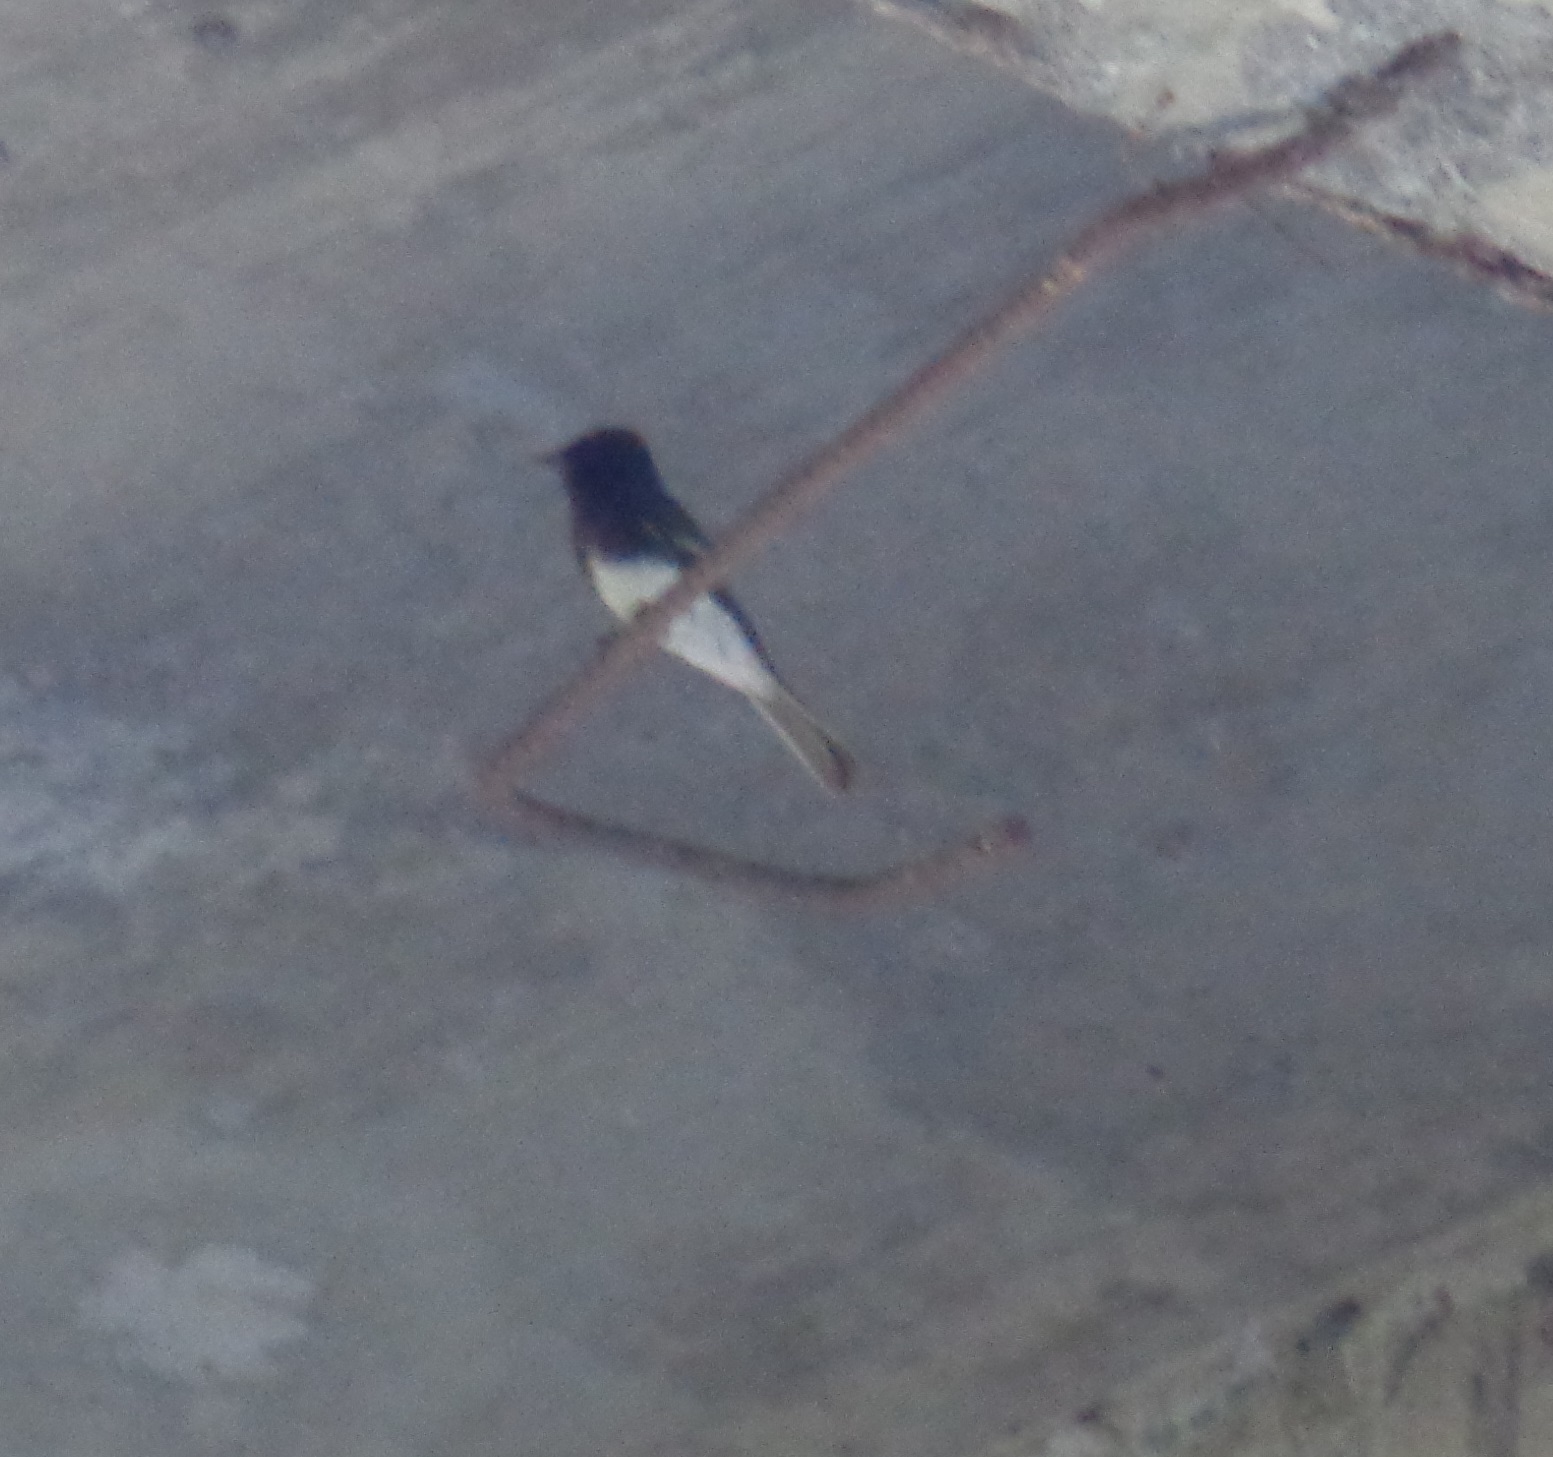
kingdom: Animalia
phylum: Chordata
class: Aves
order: Passeriformes
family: Tyrannidae
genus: Sayornis
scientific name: Sayornis nigricans
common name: Black phoebe
